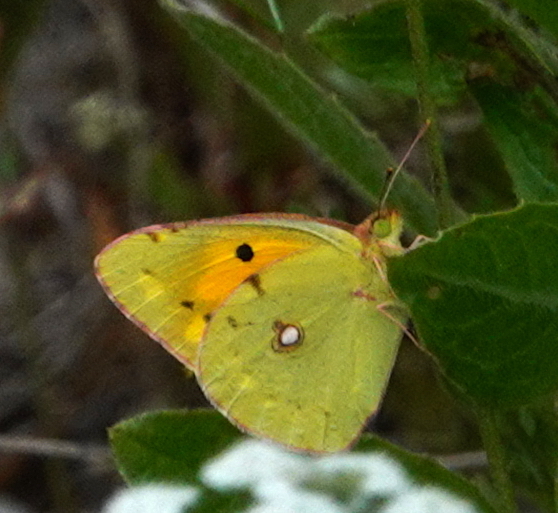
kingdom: Animalia
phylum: Arthropoda
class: Insecta
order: Lepidoptera
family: Pieridae
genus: Colias
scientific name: Colias croceus
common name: Clouded yellow
